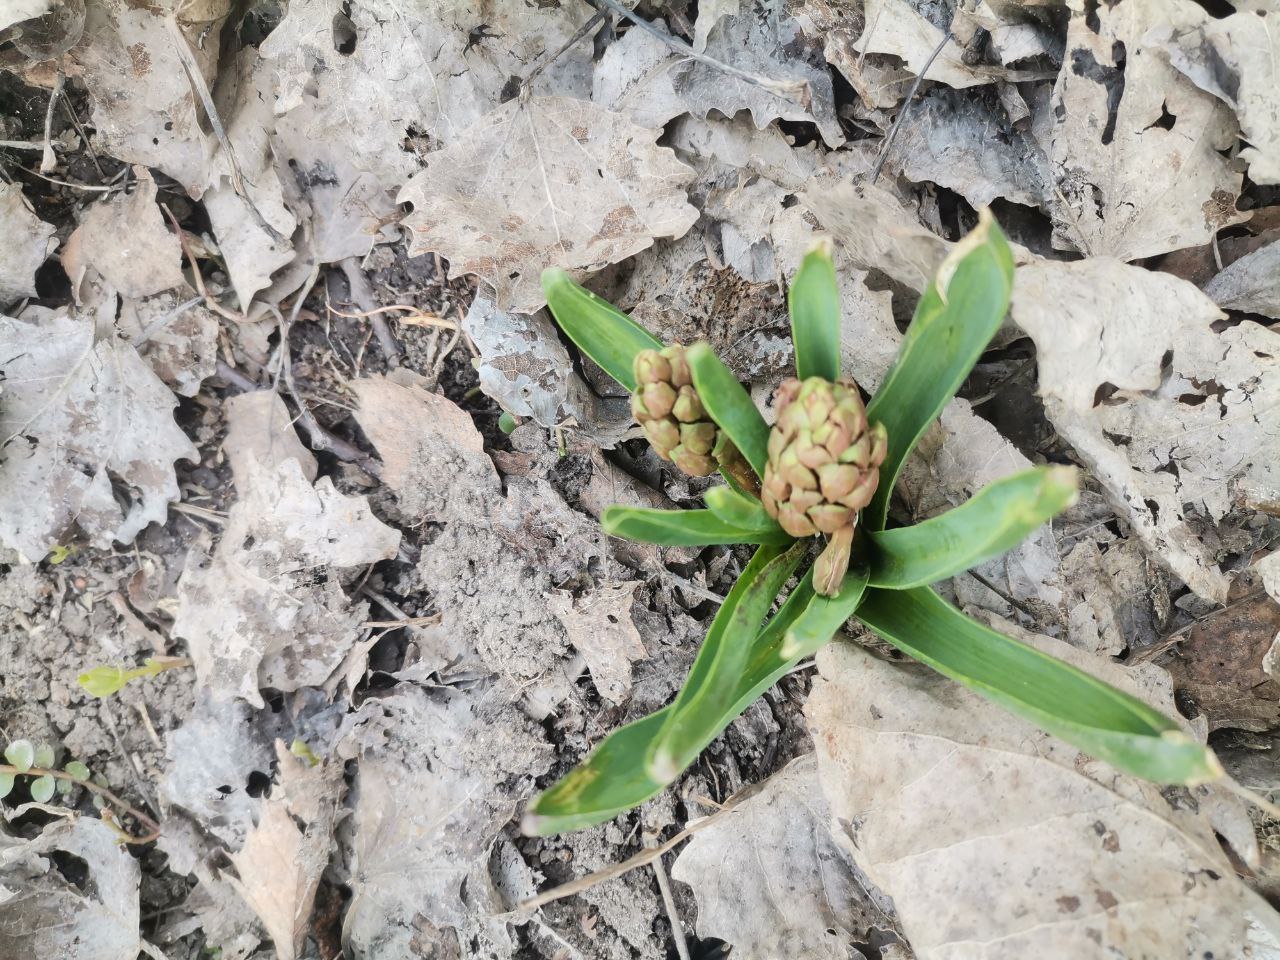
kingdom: Plantae
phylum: Tracheophyta
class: Liliopsida
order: Asparagales
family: Asparagaceae
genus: Hyacinthus
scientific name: Hyacinthus orientalis
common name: Hyacinth
